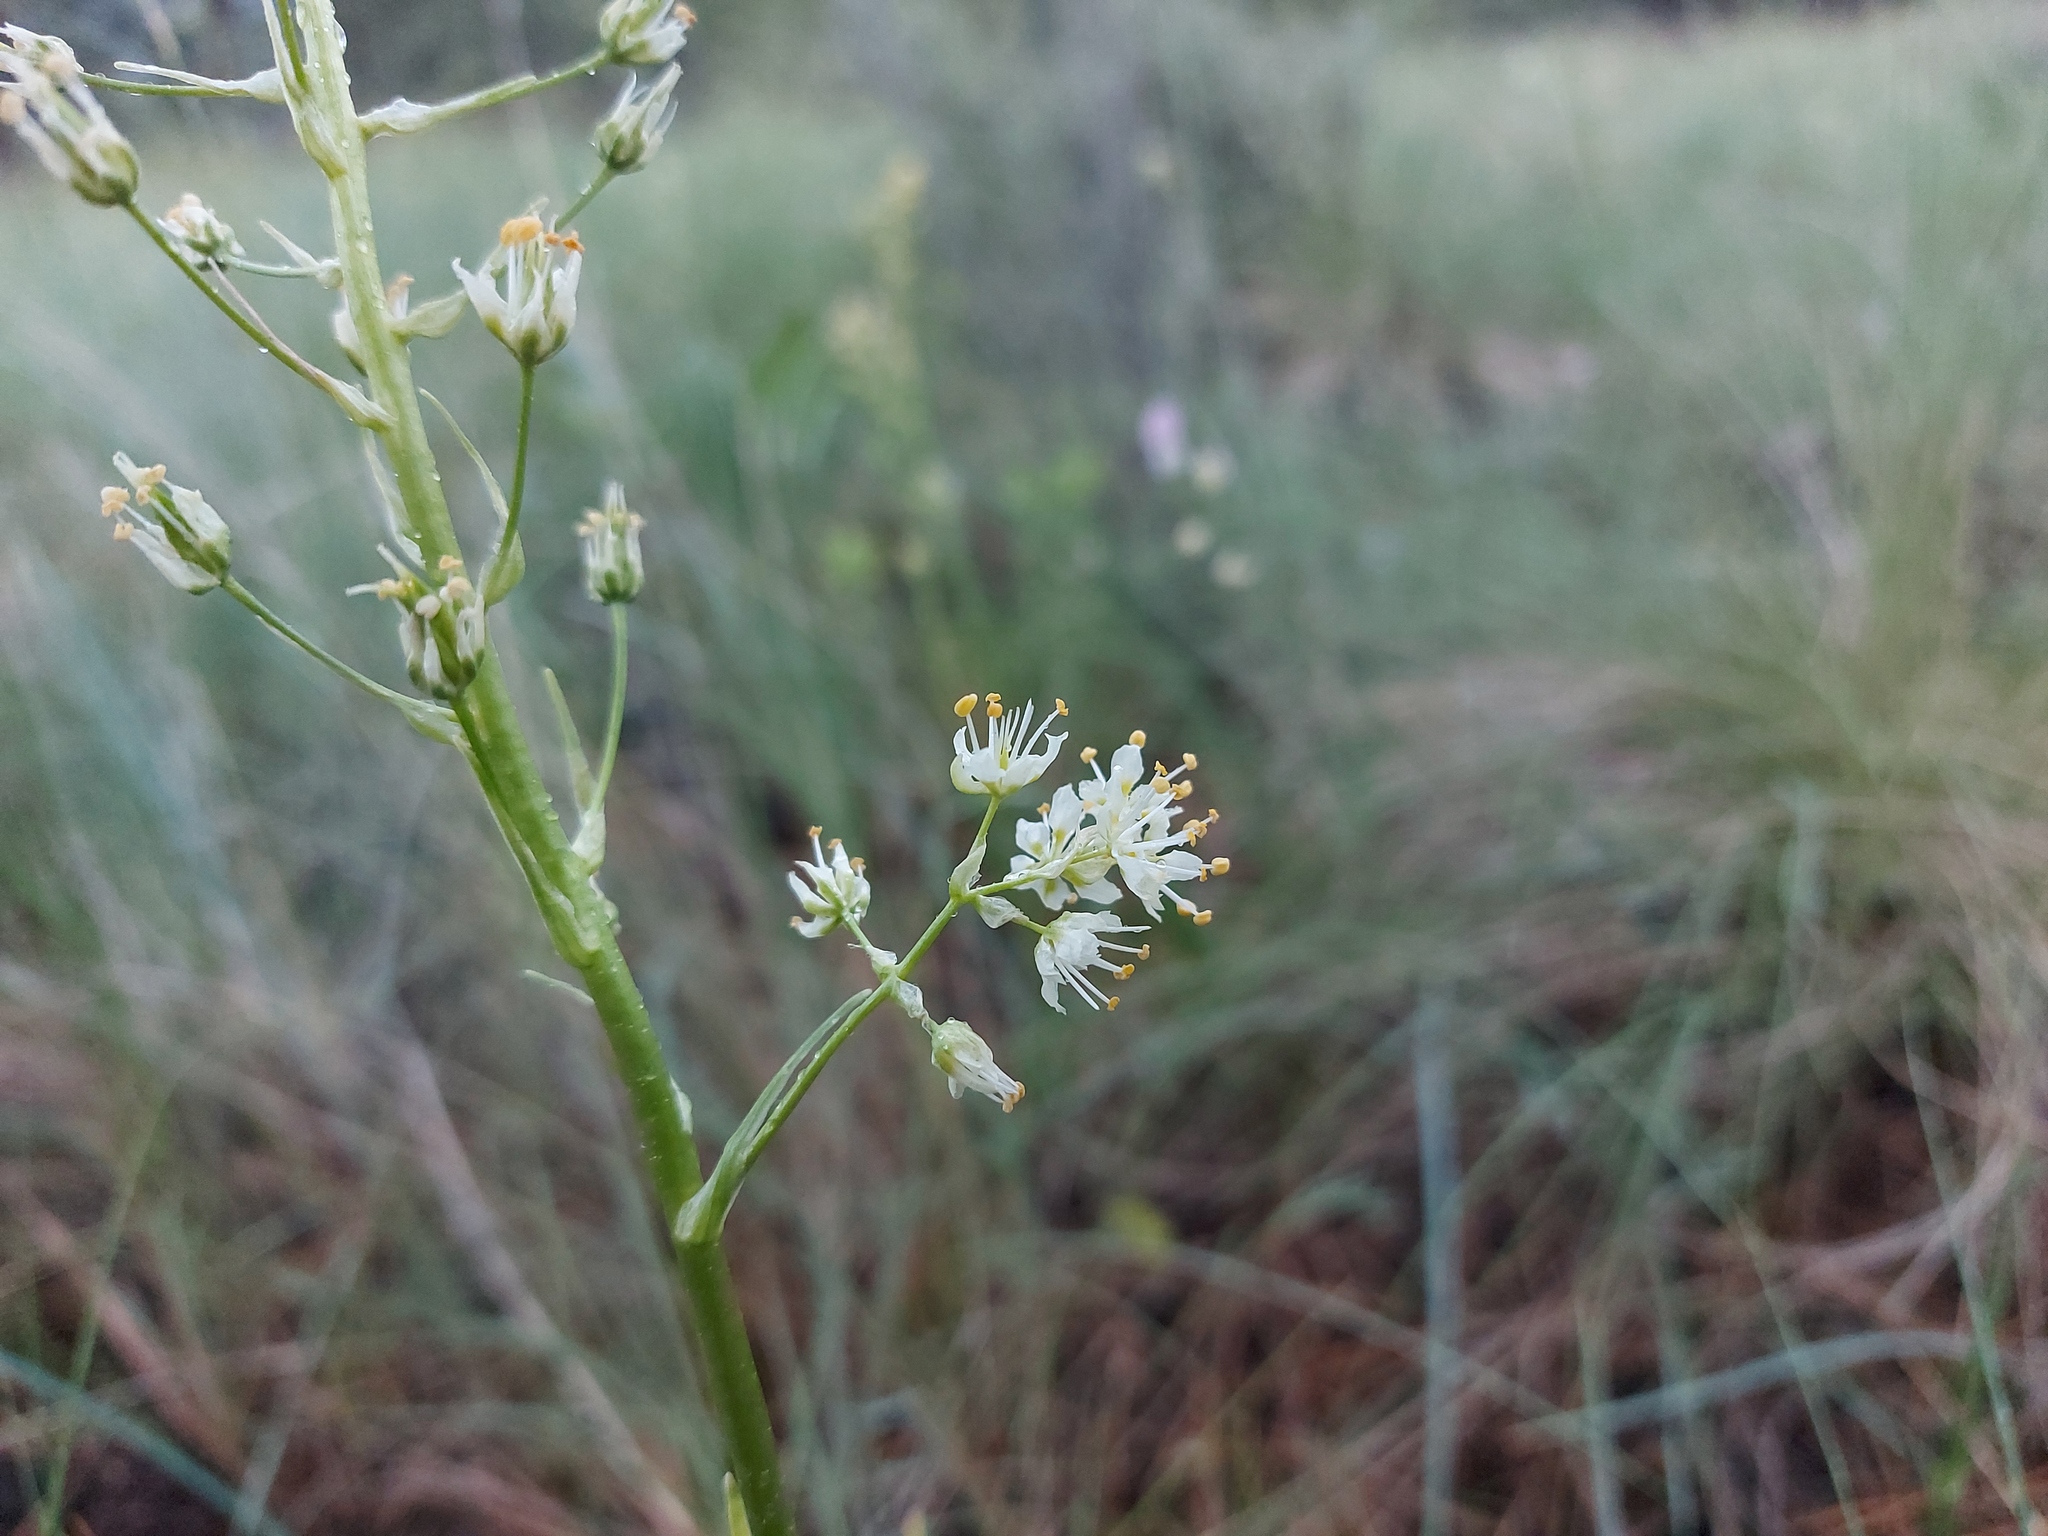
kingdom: Plantae
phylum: Tracheophyta
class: Liliopsida
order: Liliales
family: Melanthiaceae
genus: Toxicoscordion
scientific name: Toxicoscordion paniculatum
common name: Foothill death camas
